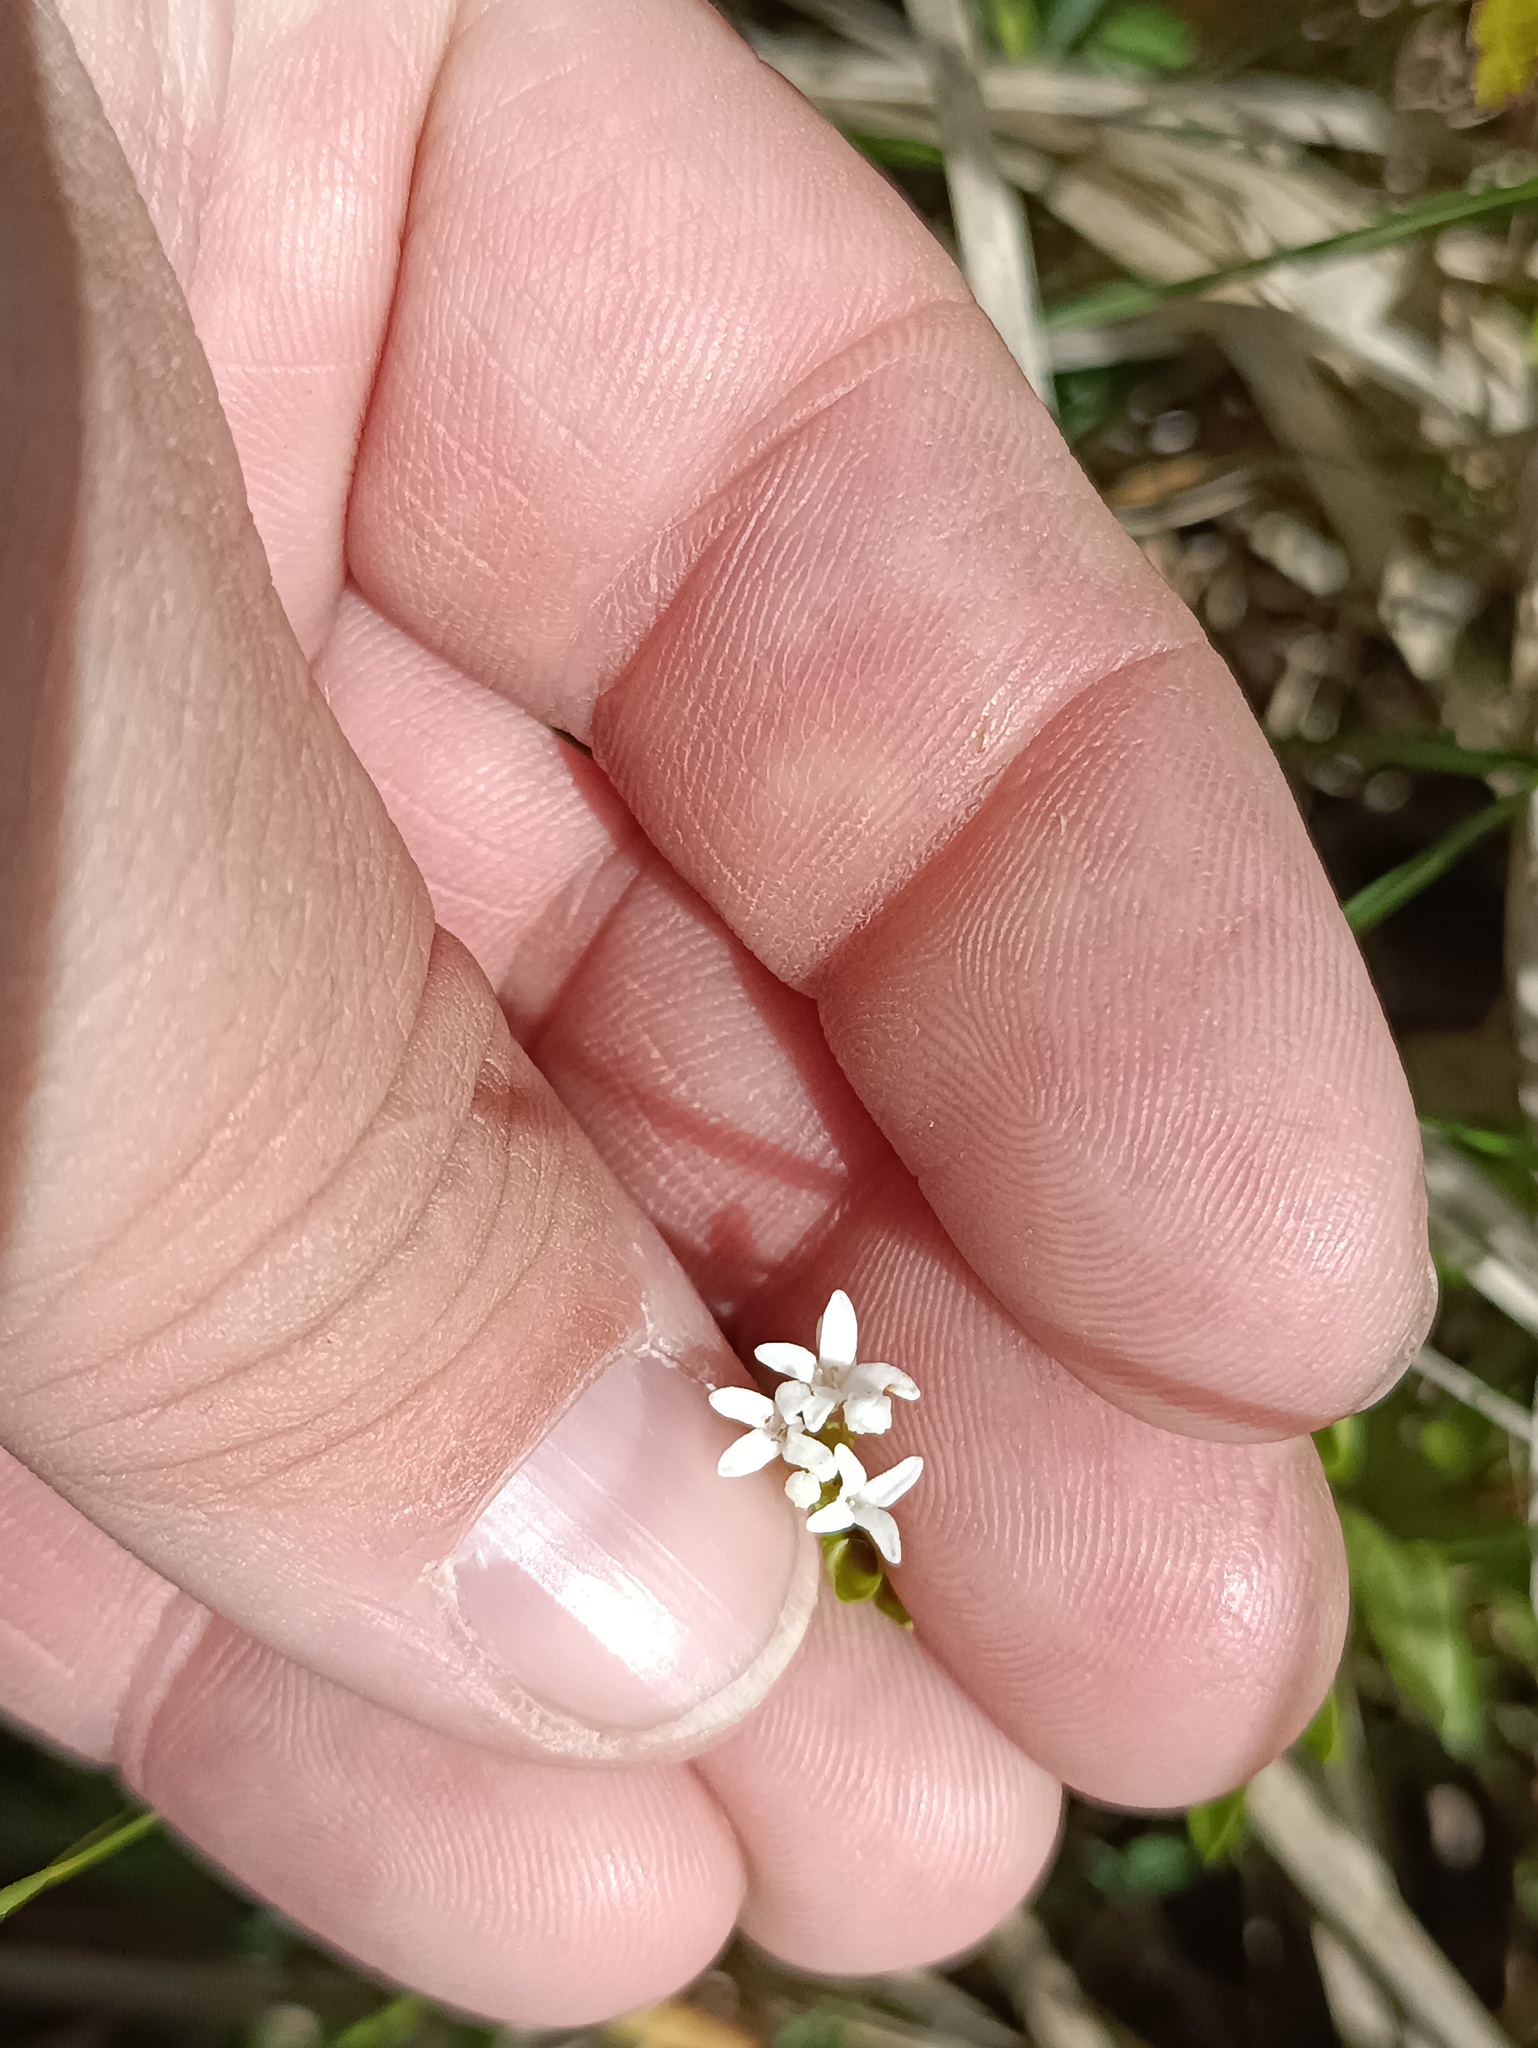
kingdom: Plantae
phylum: Tracheophyta
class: Magnoliopsida
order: Gentianales
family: Rubiaceae
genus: Galium
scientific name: Galium odoratum
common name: Sweet woodruff
